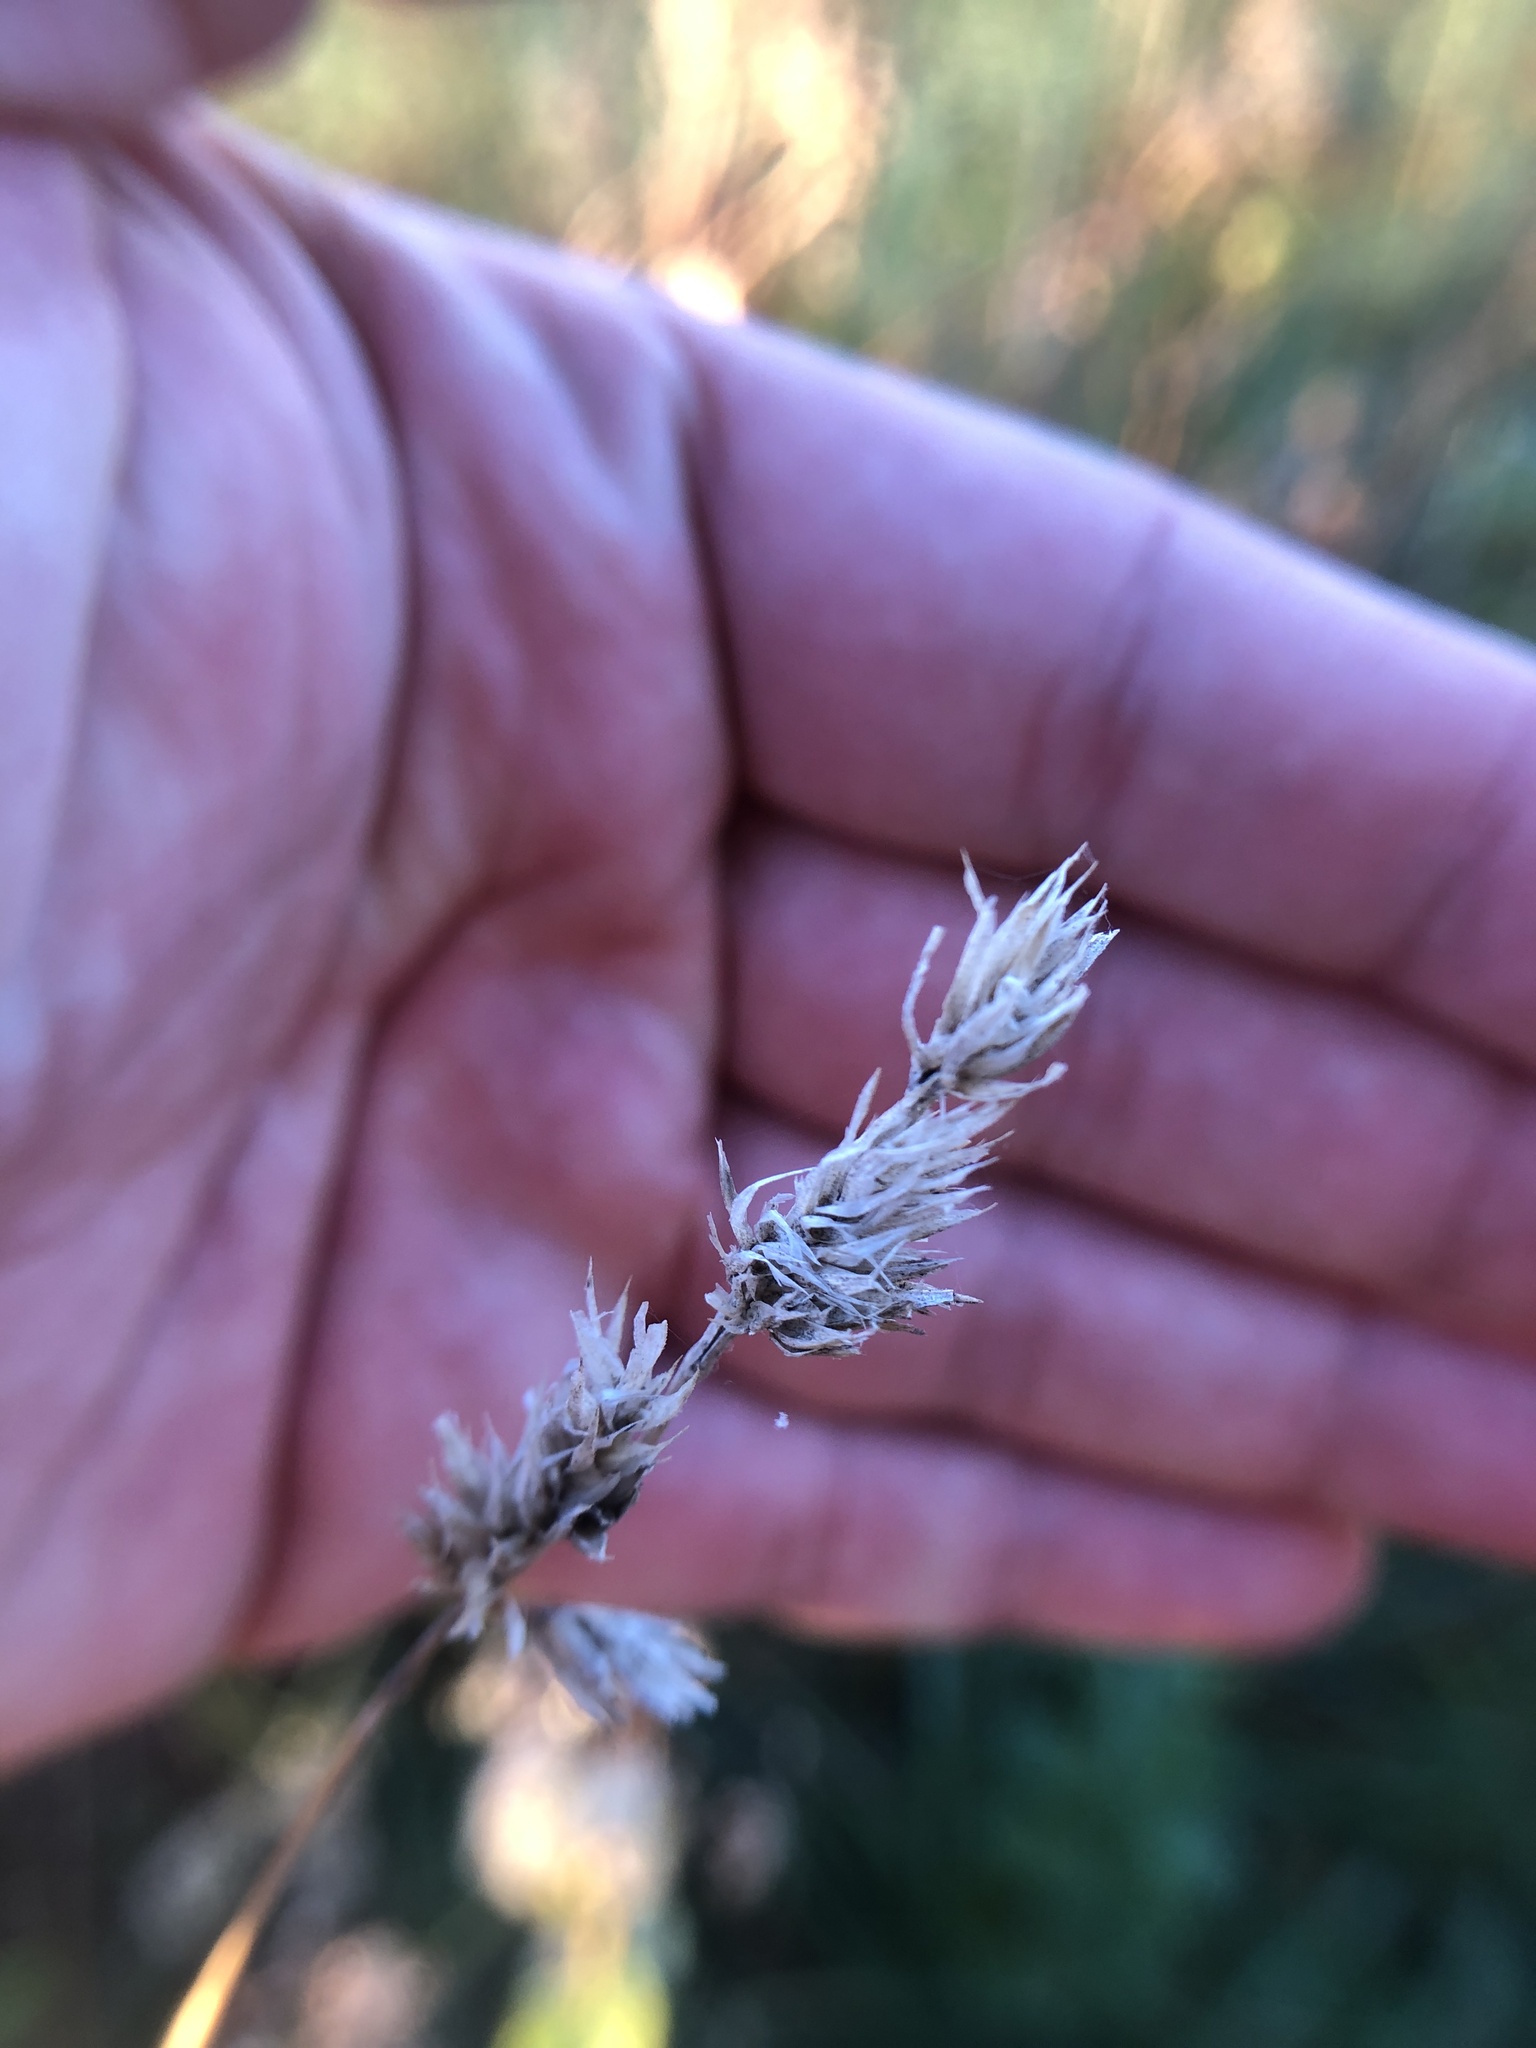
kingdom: Plantae
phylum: Tracheophyta
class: Liliopsida
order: Poales
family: Poaceae
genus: Dactylis
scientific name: Dactylis glomerata
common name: Orchardgrass
